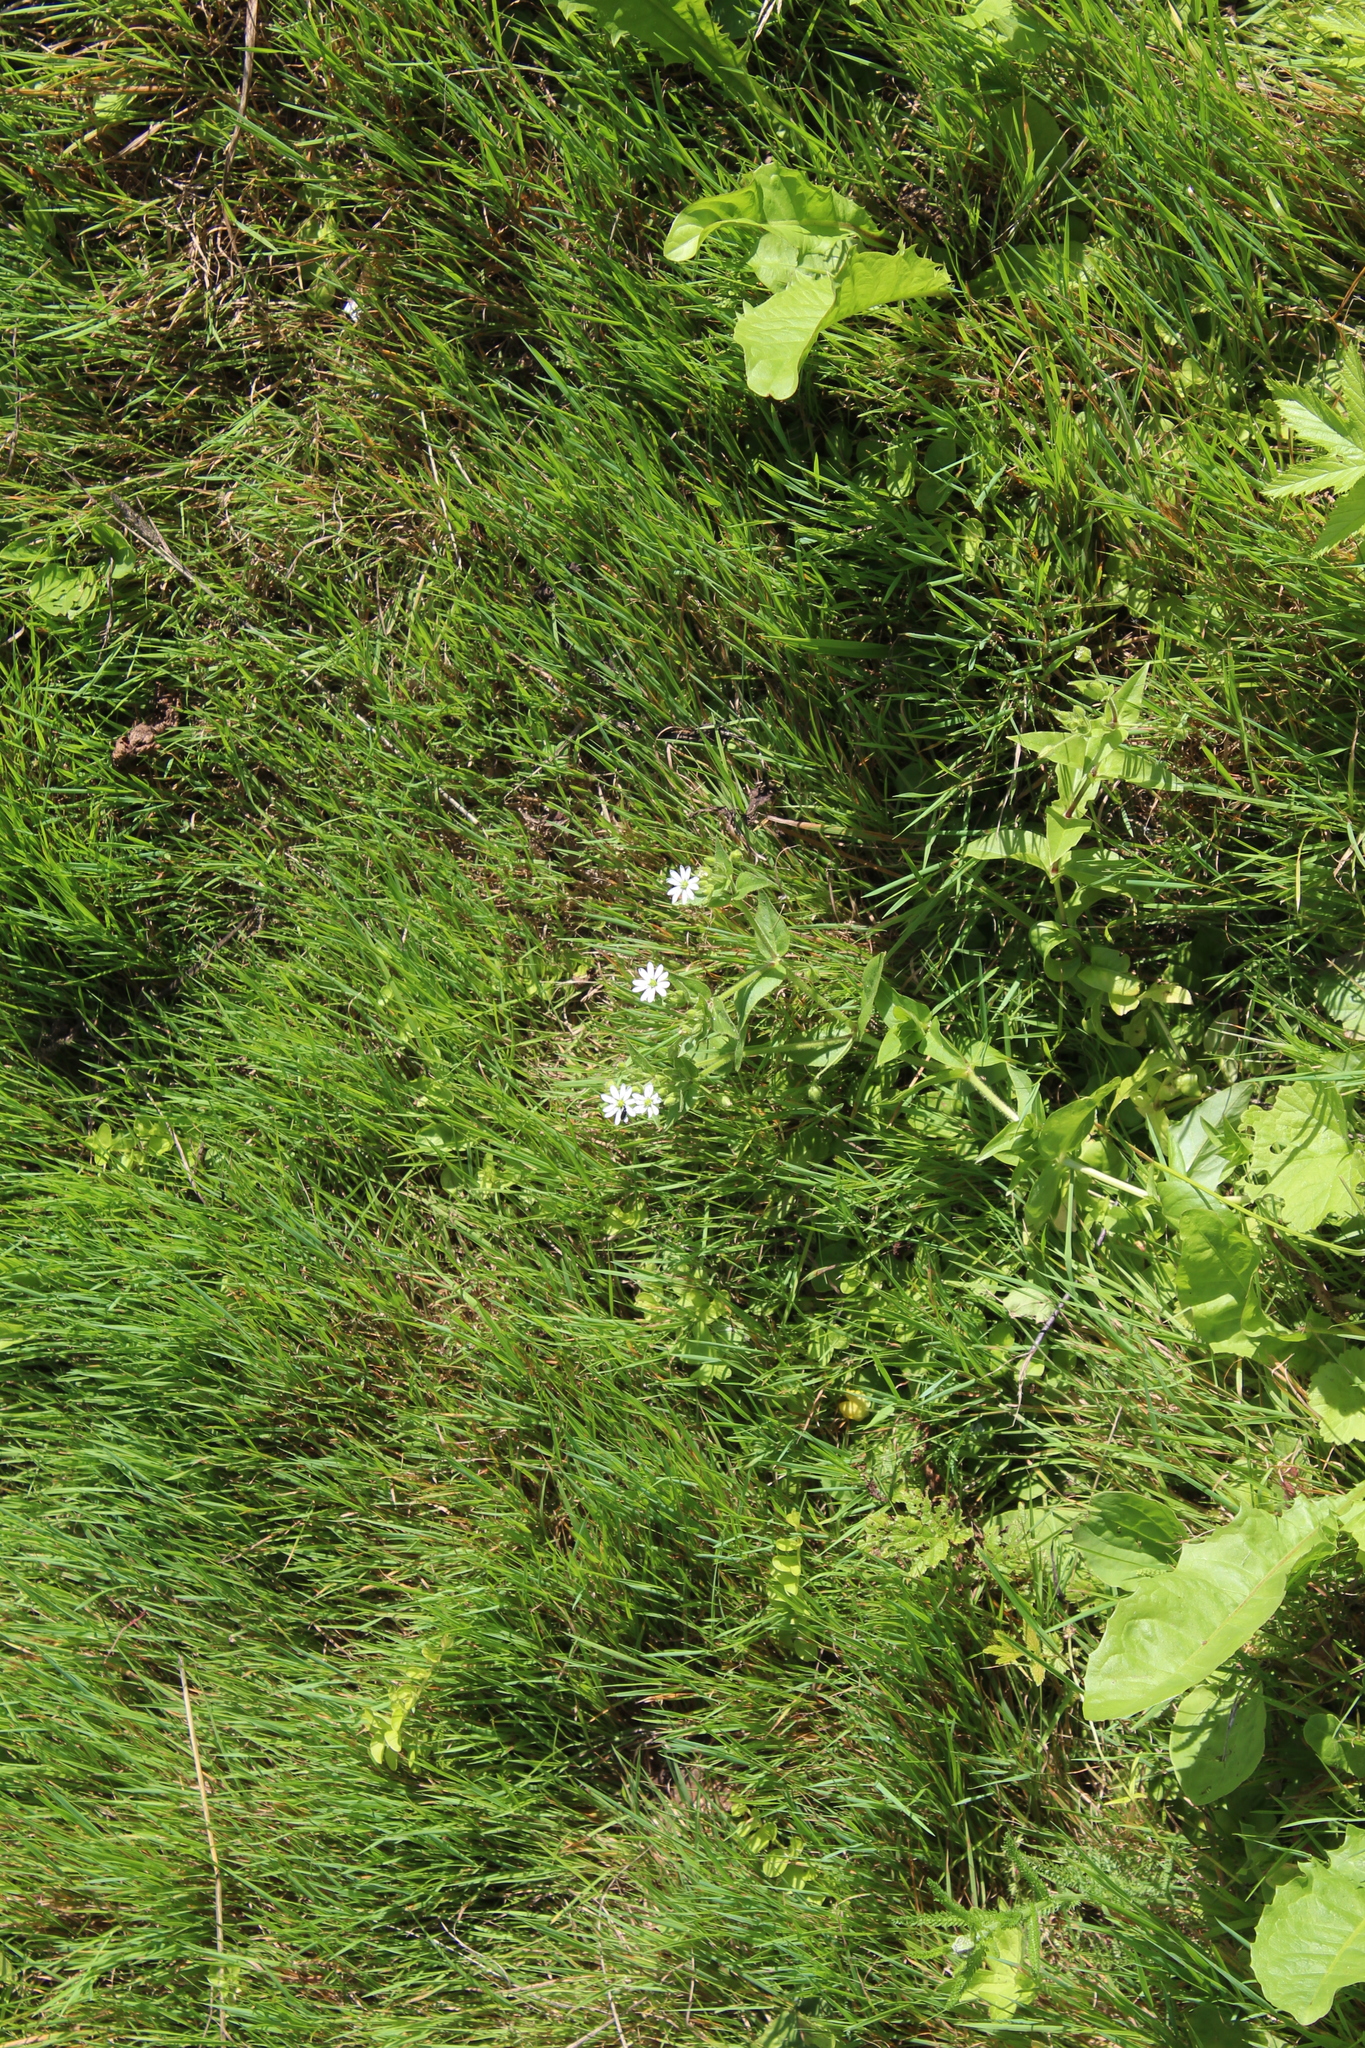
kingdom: Plantae
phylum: Tracheophyta
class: Magnoliopsida
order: Caryophyllales
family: Caryophyllaceae
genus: Stellaria
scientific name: Stellaria aquatica
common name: Water chickweed
